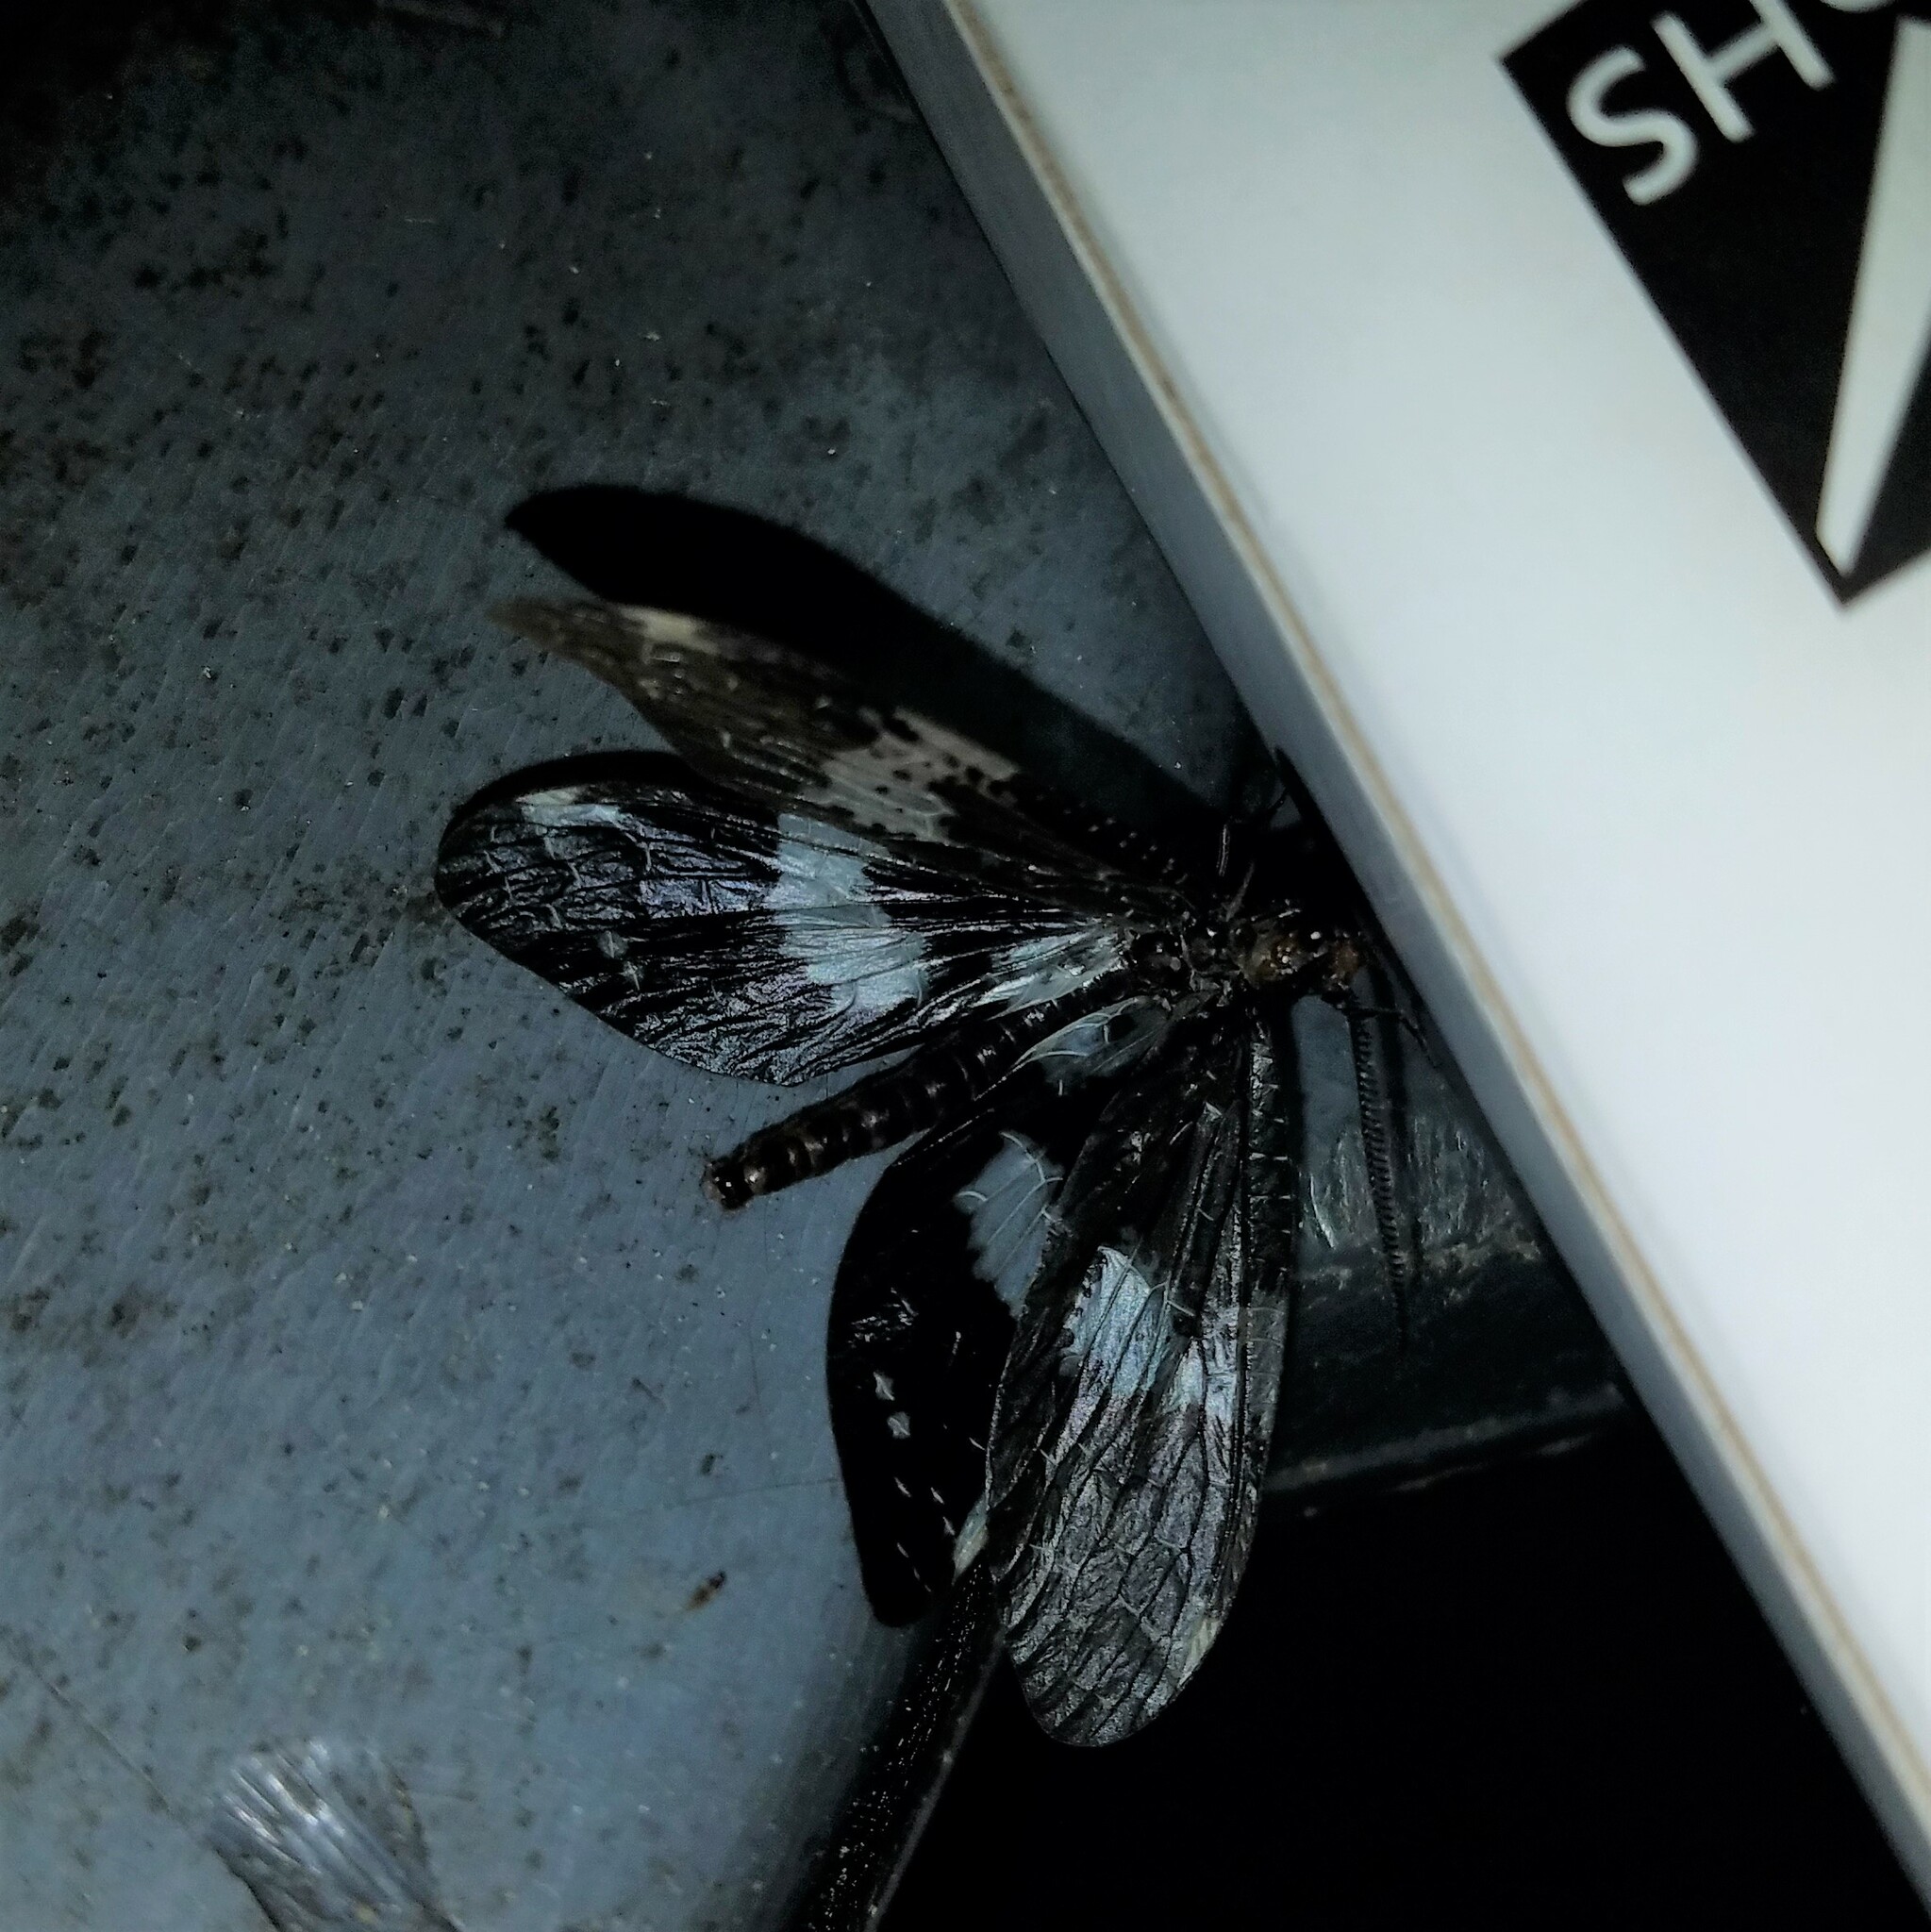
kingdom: Animalia
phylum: Arthropoda
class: Insecta
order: Megaloptera
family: Corydalidae
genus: Nigronia
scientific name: Nigronia fasciata
